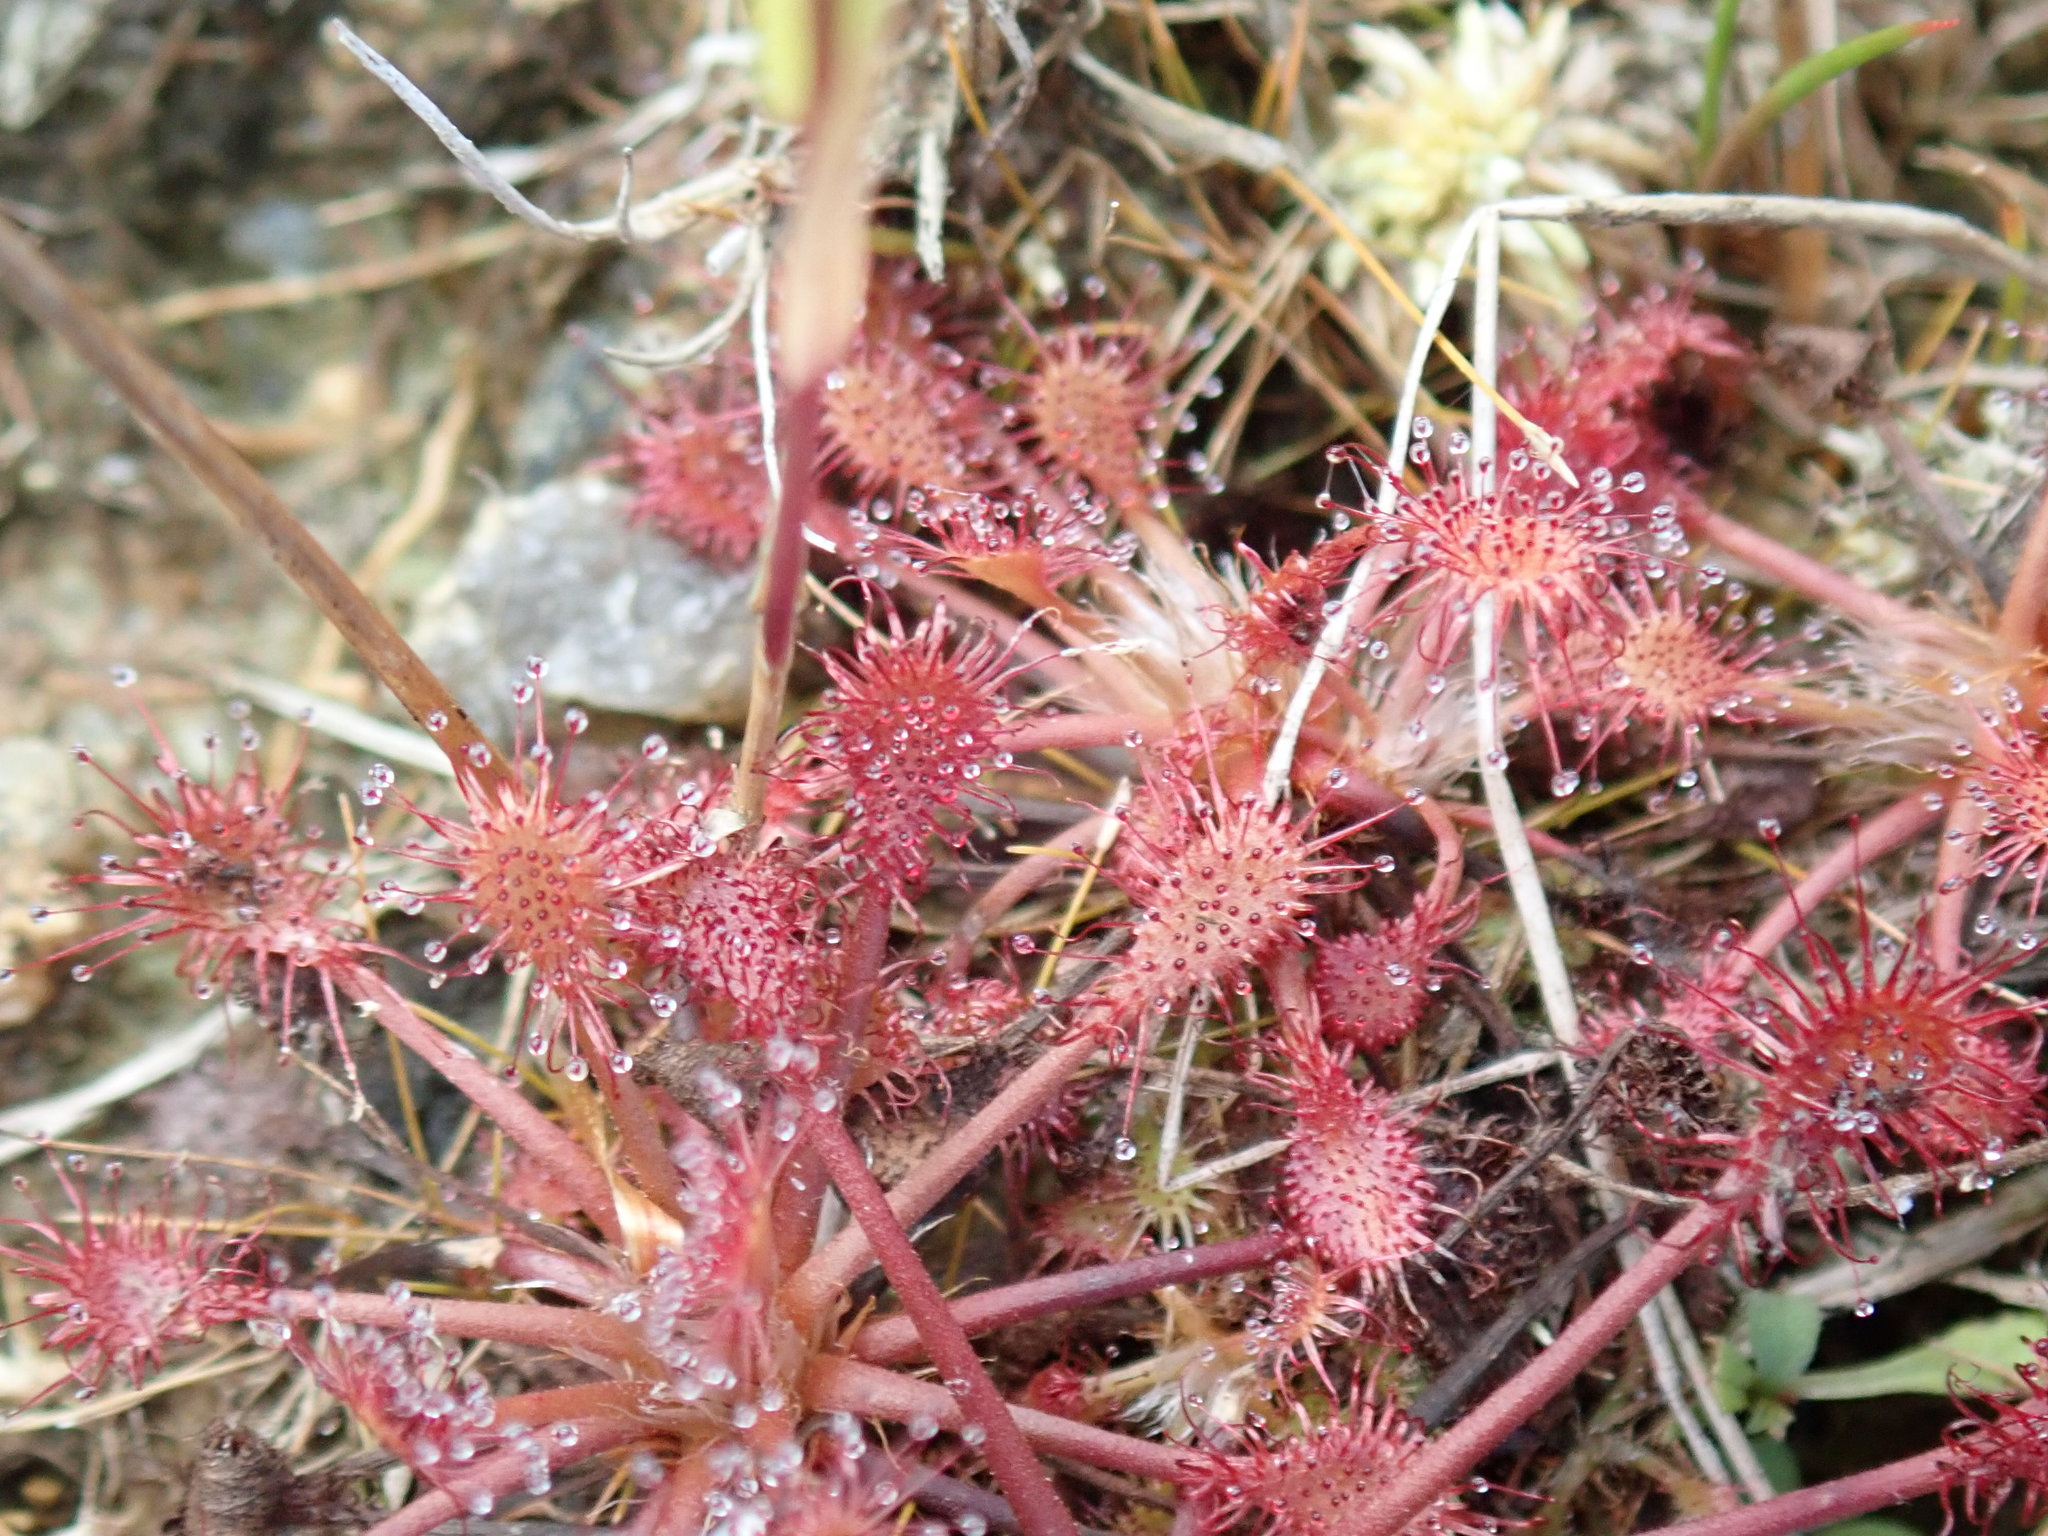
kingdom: Plantae
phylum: Tracheophyta
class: Magnoliopsida
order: Caryophyllales
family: Droseraceae
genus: Drosera
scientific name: Drosera intermedia
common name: Oblong-leaved sundew
